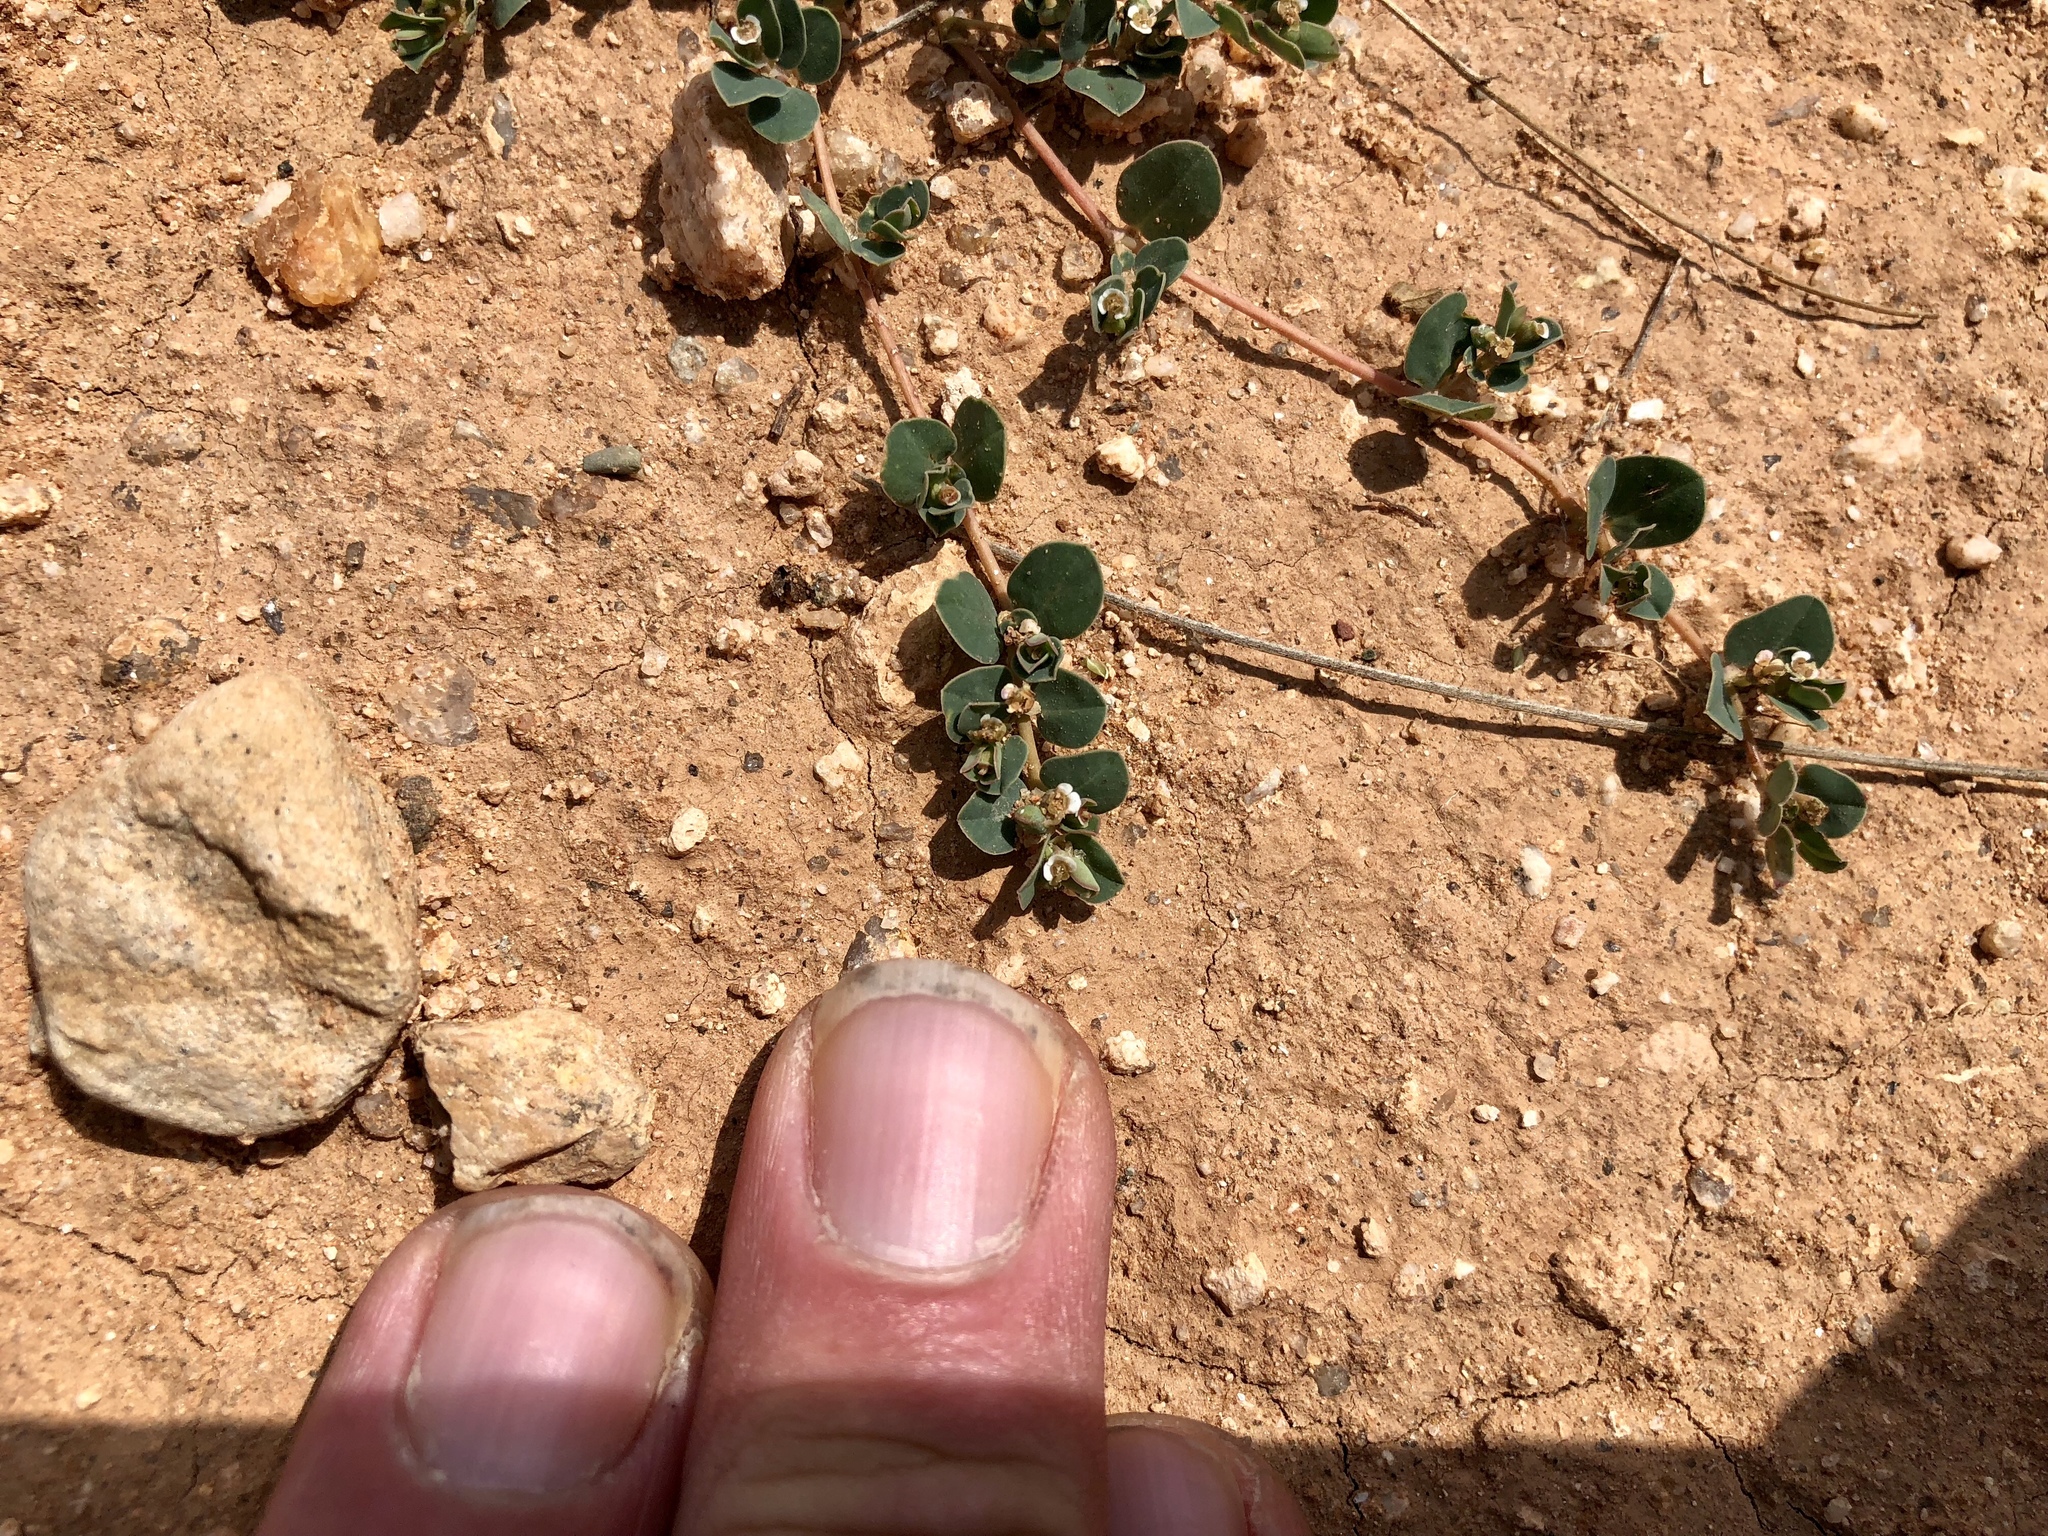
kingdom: Plantae
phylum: Tracheophyta
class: Magnoliopsida
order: Malpighiales
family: Euphorbiaceae
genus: Euphorbia
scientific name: Euphorbia albomarginata
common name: Whitemargin sandmat
